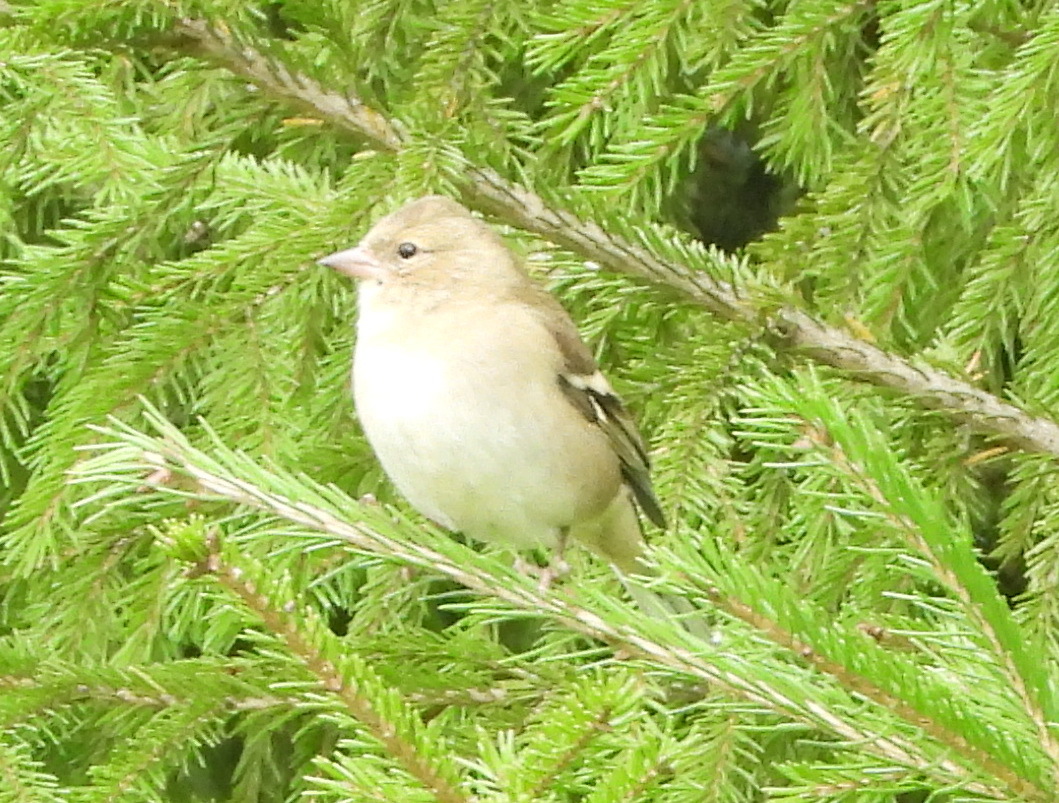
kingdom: Animalia
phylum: Chordata
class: Aves
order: Passeriformes
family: Fringillidae
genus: Fringilla
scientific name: Fringilla coelebs
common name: Common chaffinch
